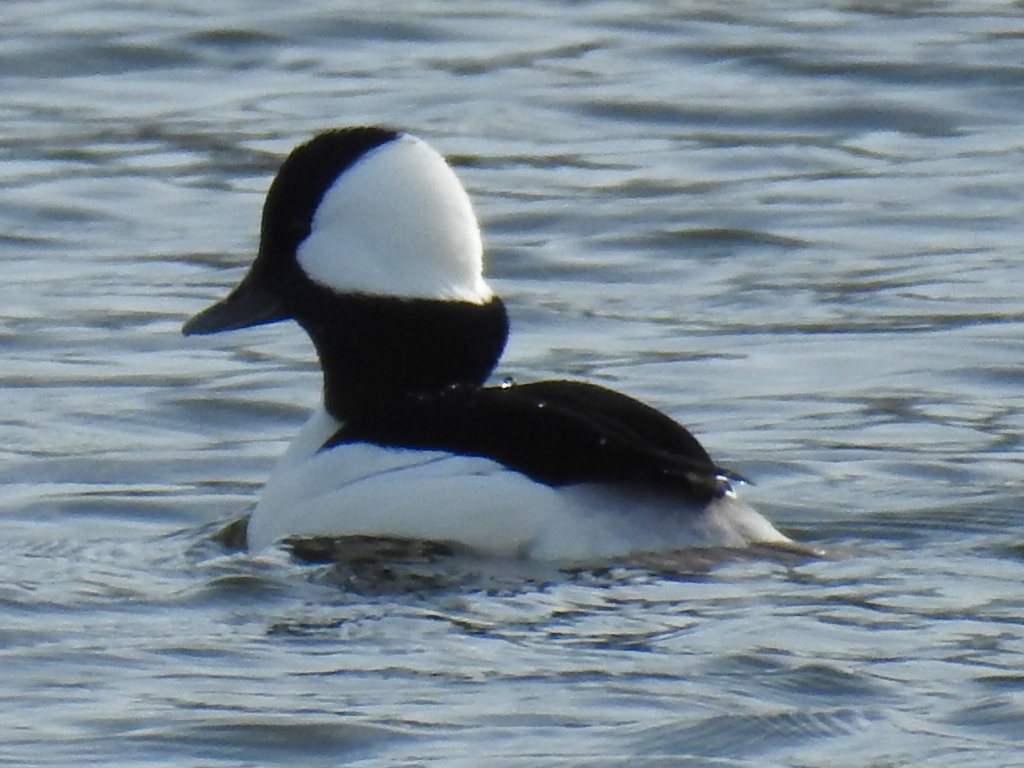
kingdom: Animalia
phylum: Chordata
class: Aves
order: Anseriformes
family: Anatidae
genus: Bucephala
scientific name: Bucephala albeola
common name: Bufflehead
